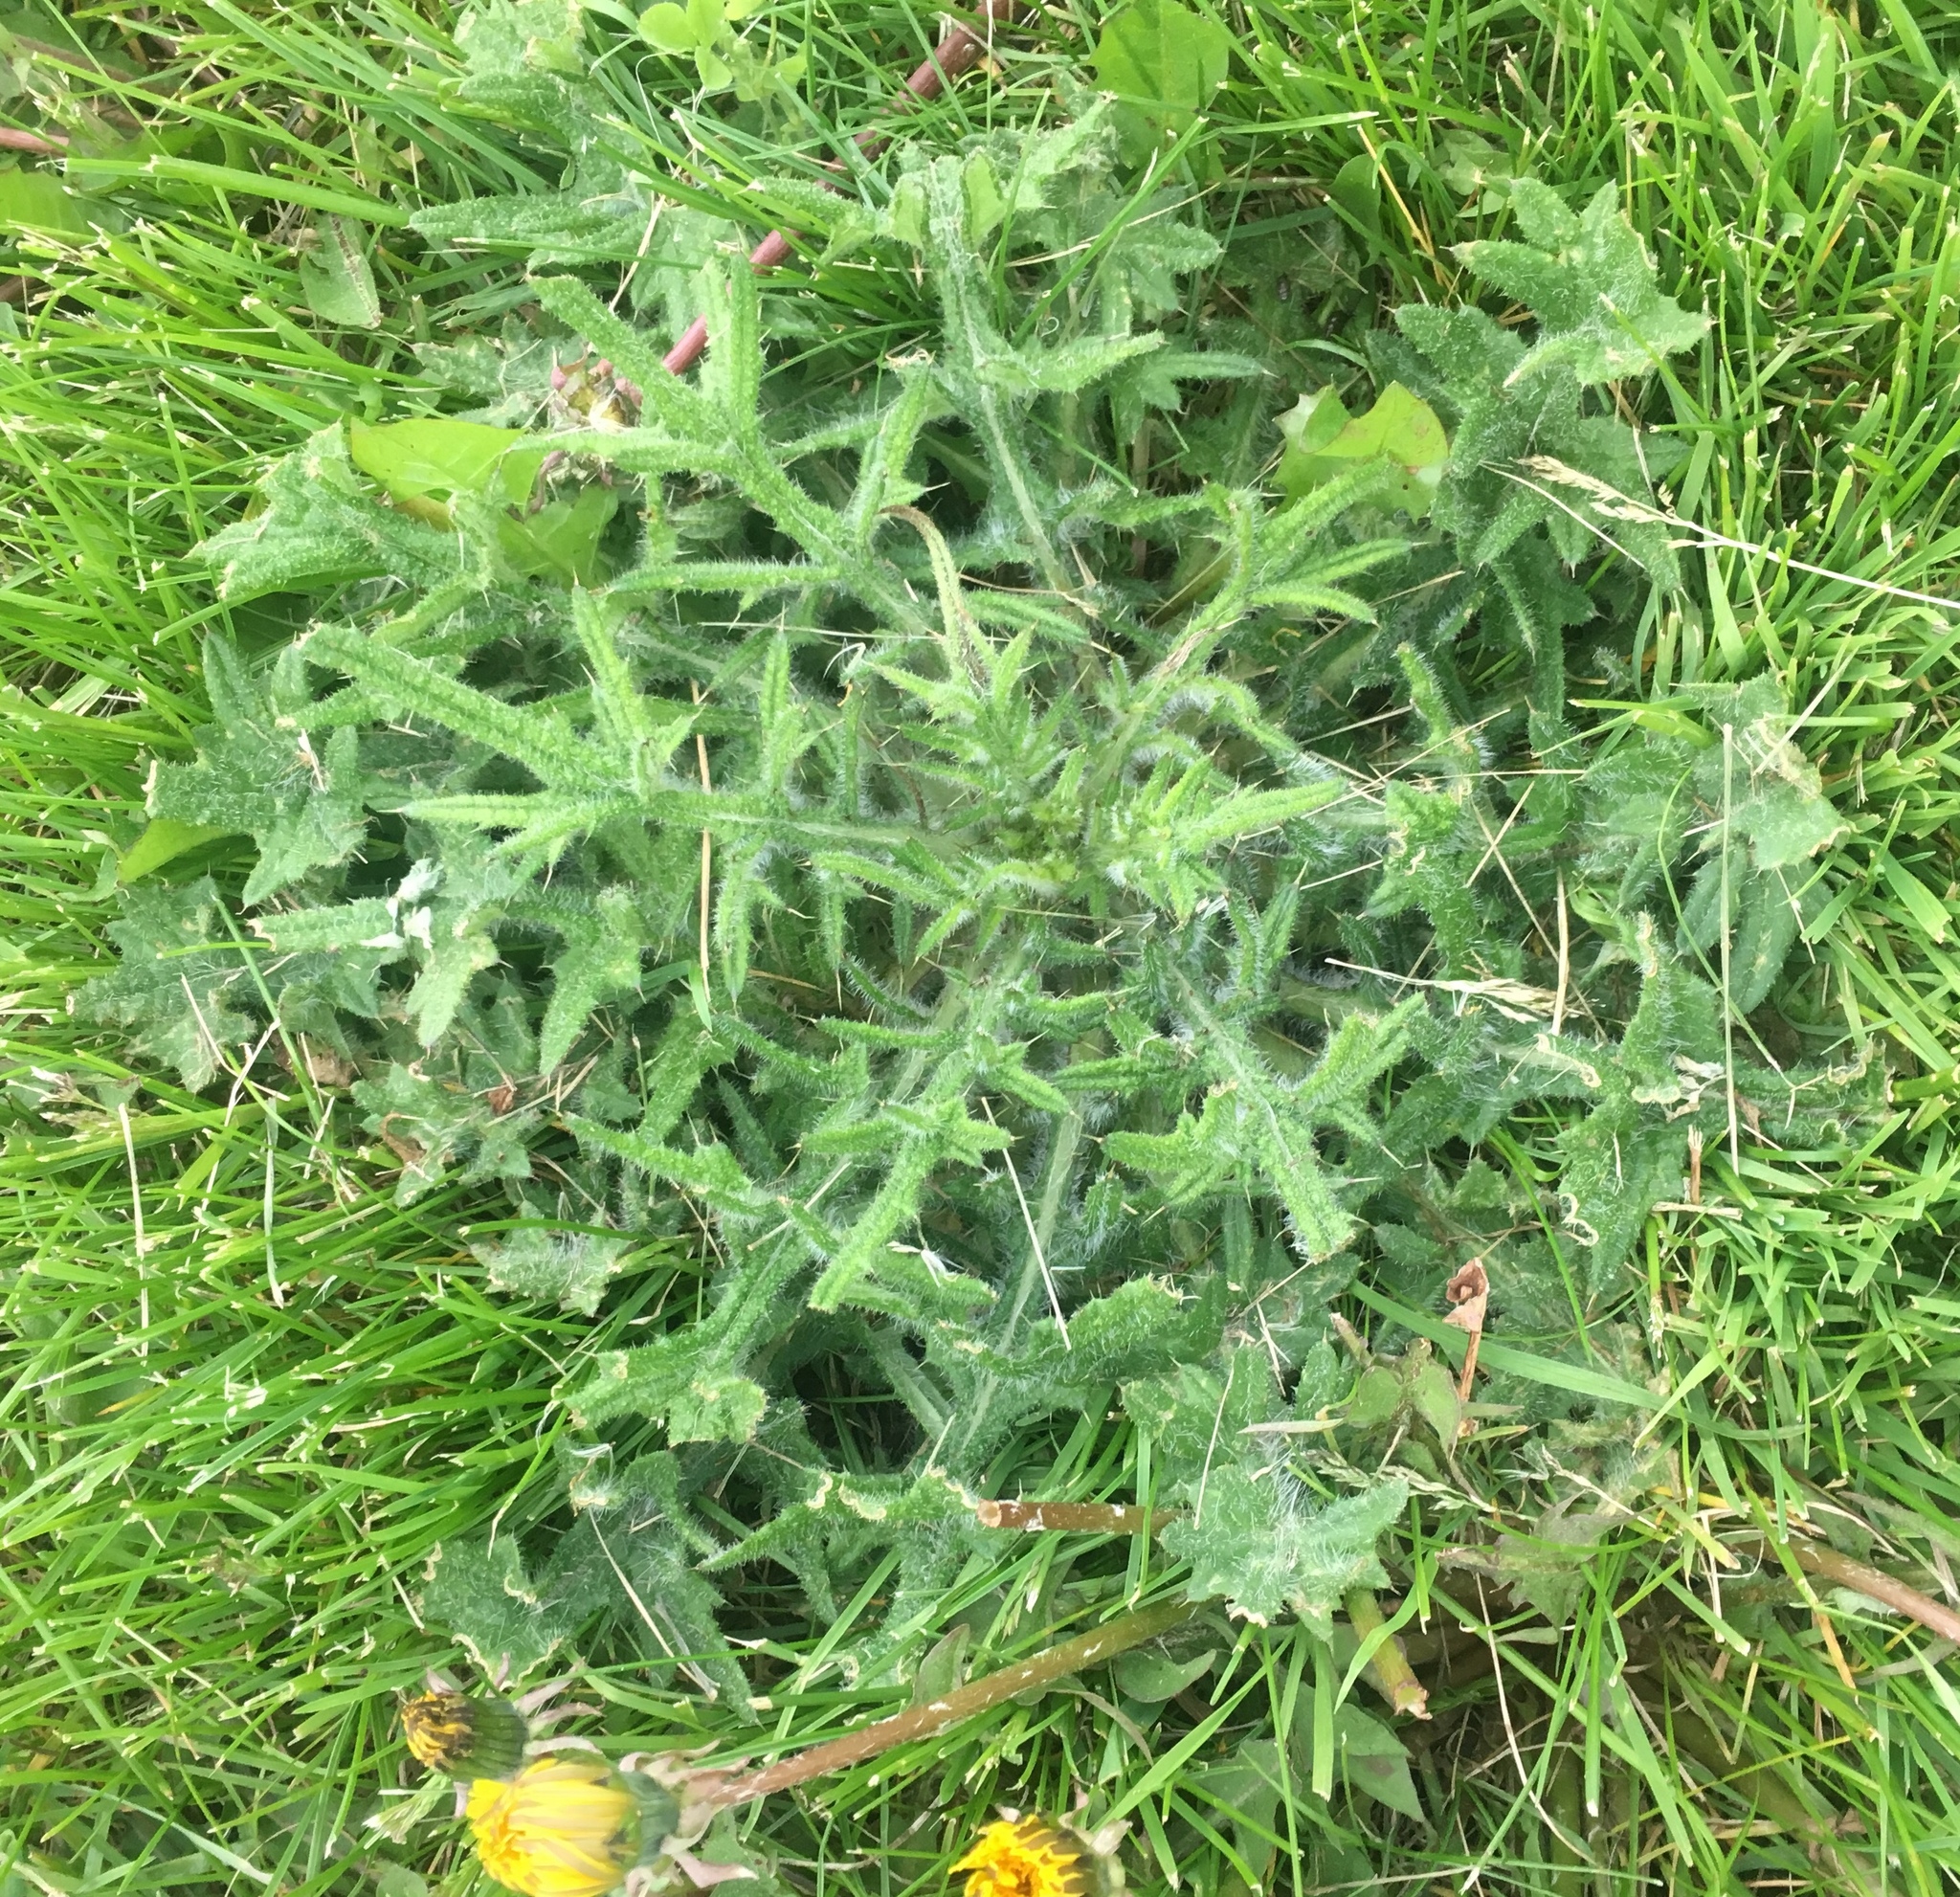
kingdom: Plantae
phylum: Tracheophyta
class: Magnoliopsida
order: Asterales
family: Asteraceae
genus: Cirsium
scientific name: Cirsium vulgare
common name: Bull thistle
